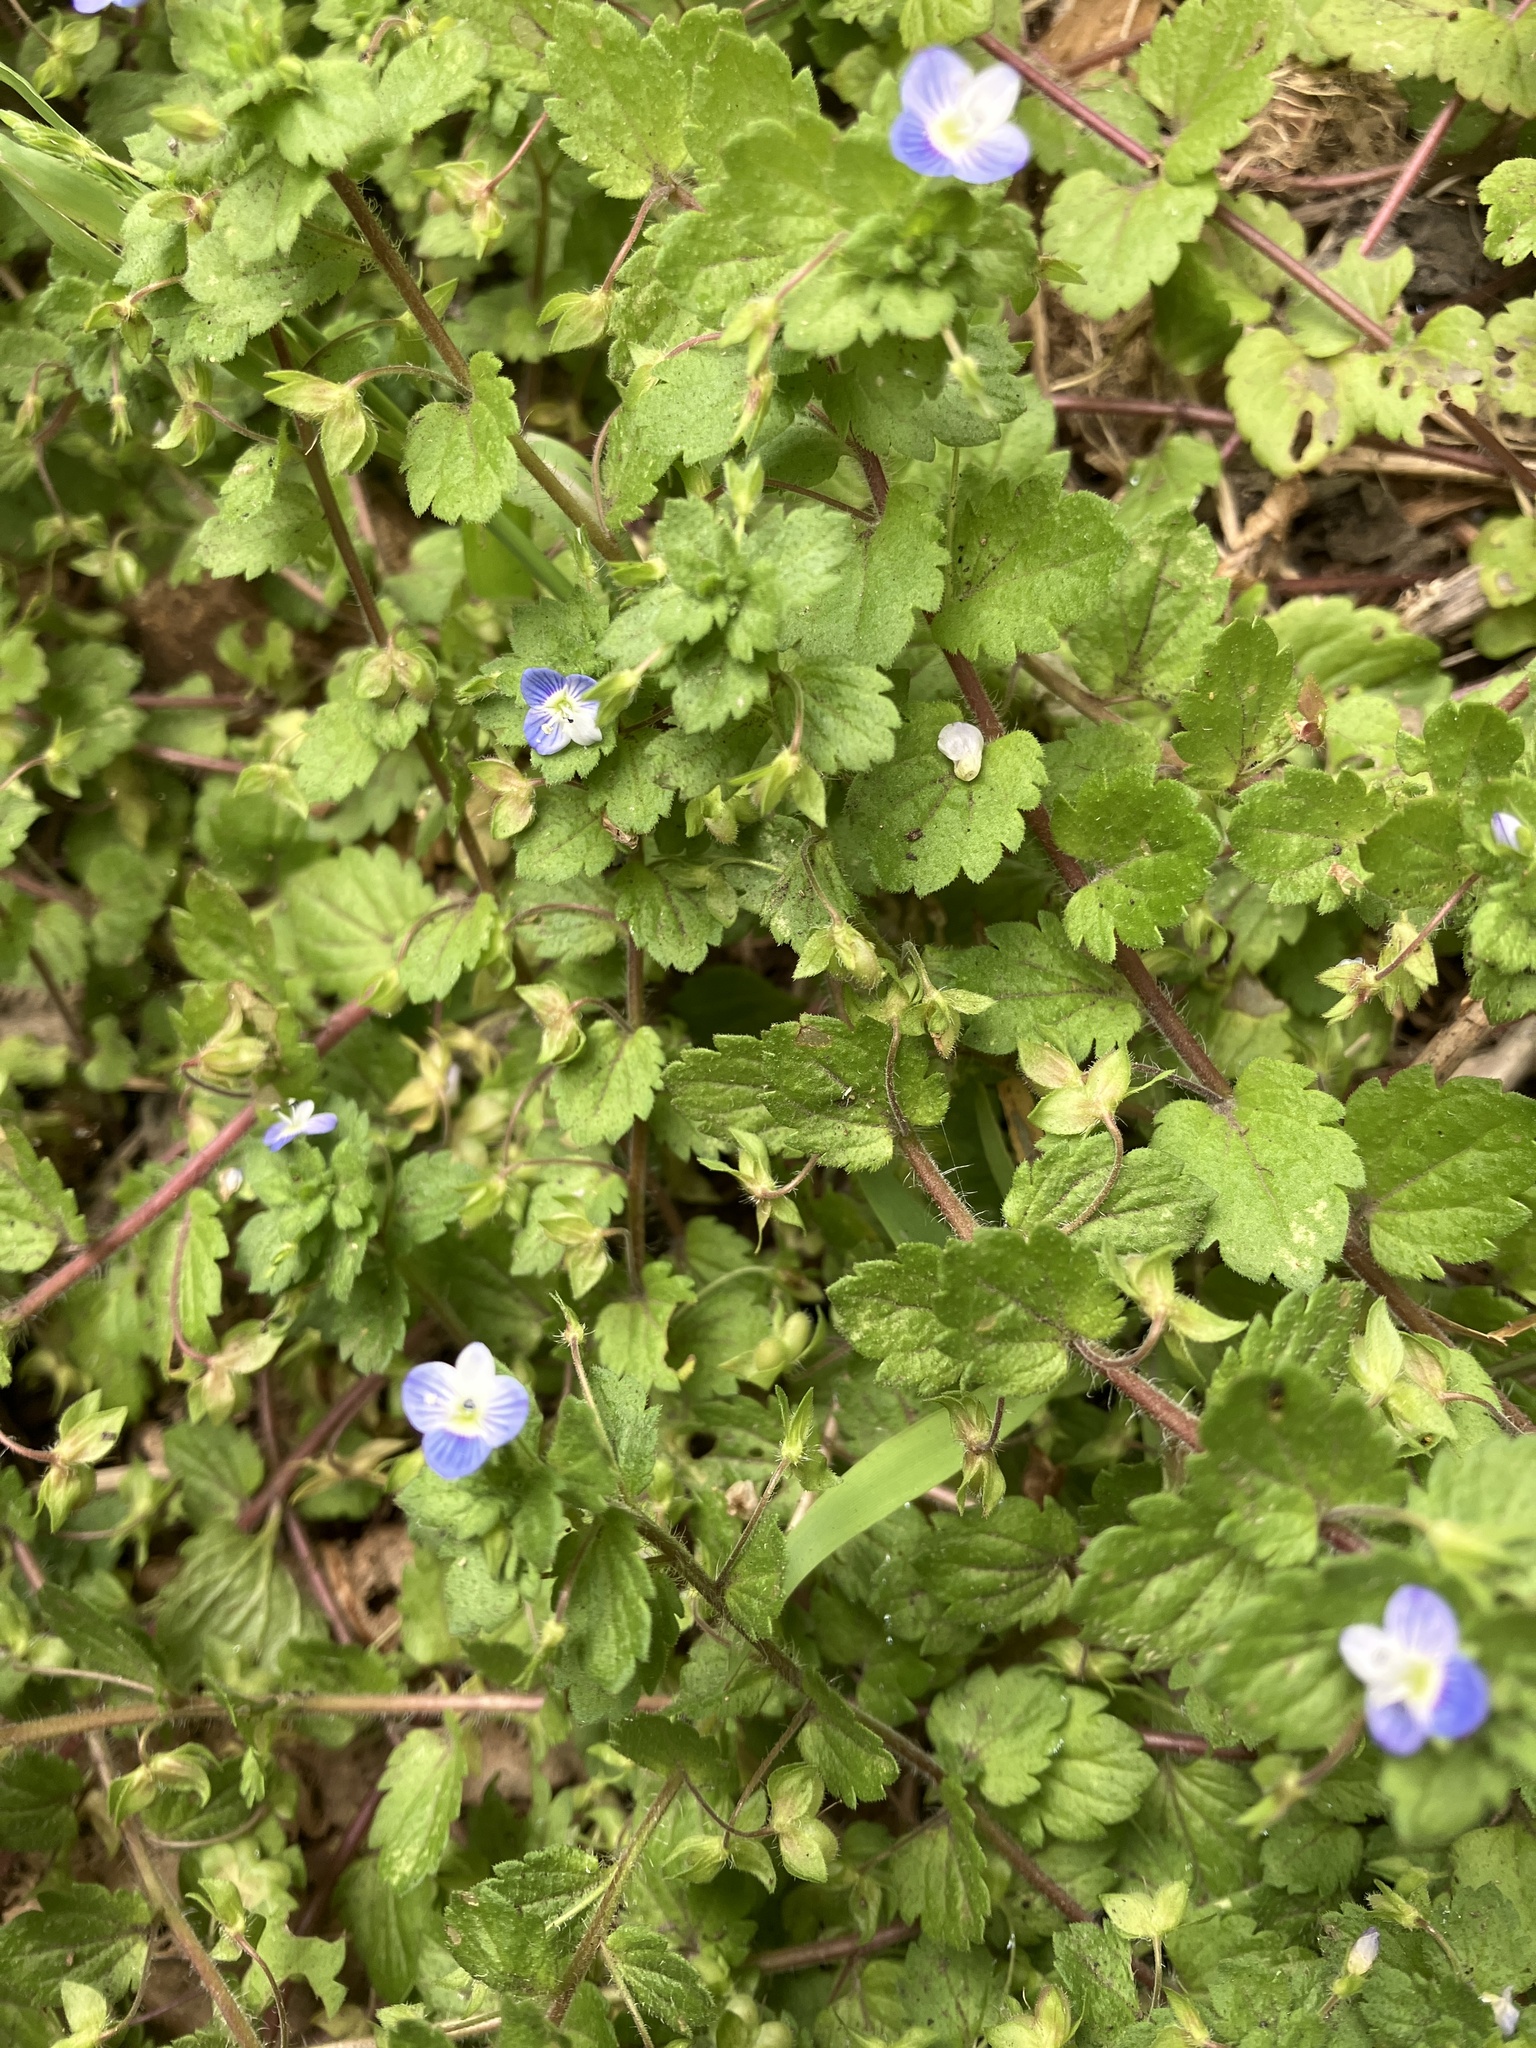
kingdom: Plantae
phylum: Tracheophyta
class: Magnoliopsida
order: Lamiales
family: Plantaginaceae
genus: Veronica
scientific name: Veronica persica
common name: Common field-speedwell
